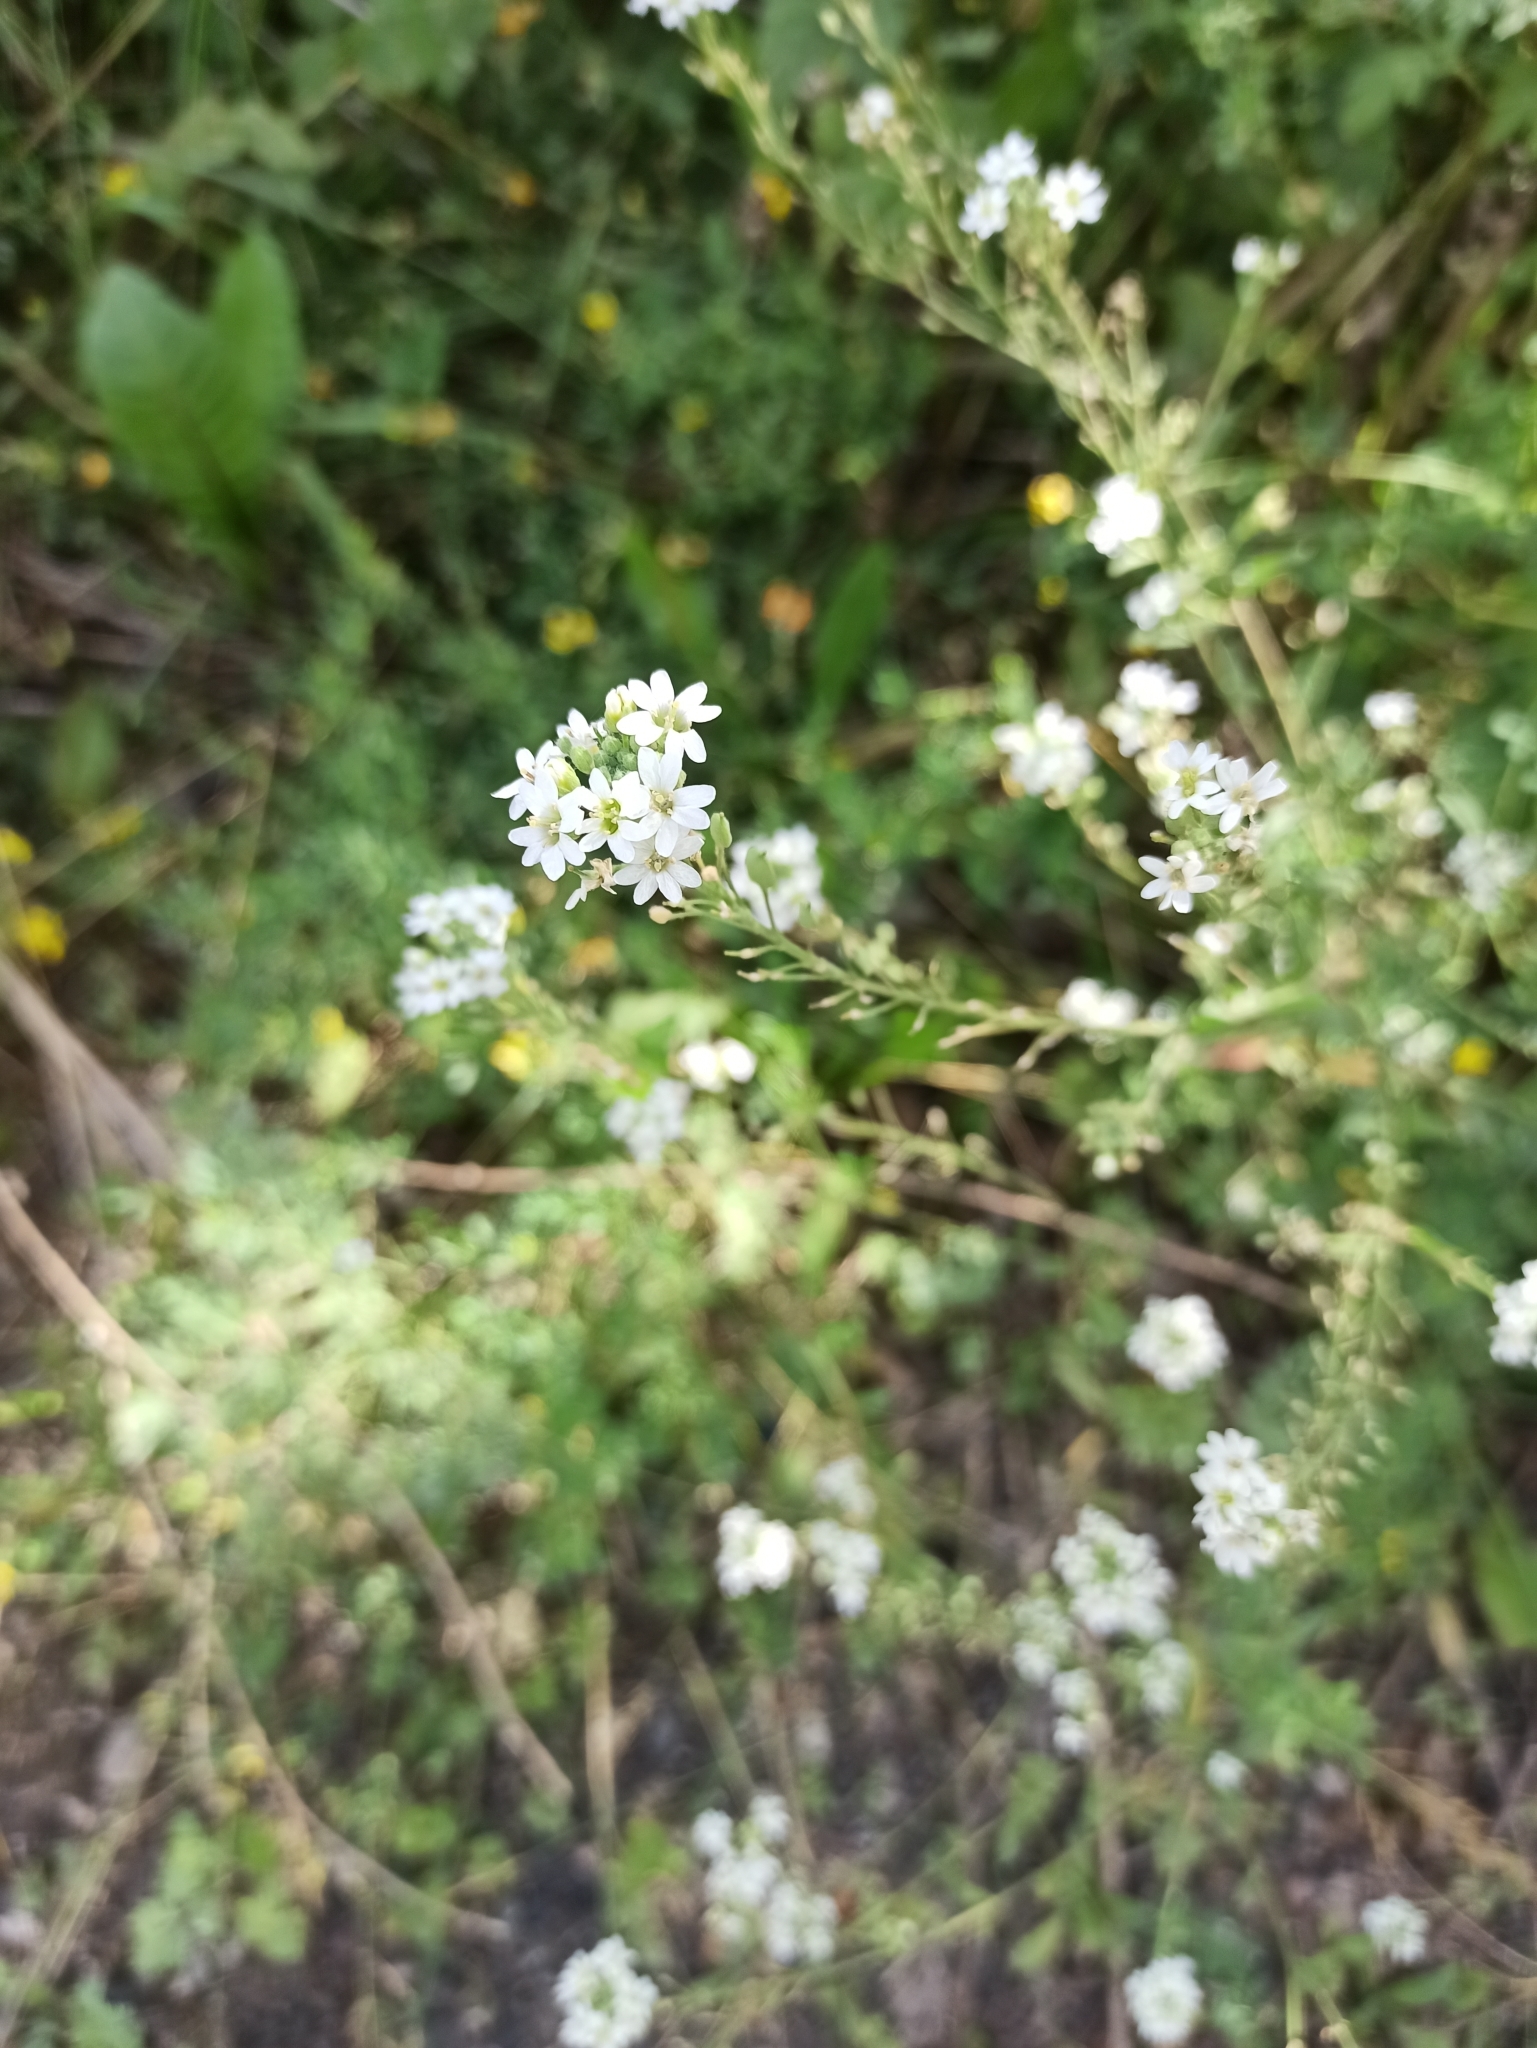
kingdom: Plantae
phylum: Tracheophyta
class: Magnoliopsida
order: Brassicales
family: Brassicaceae
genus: Berteroa
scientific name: Berteroa incana
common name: Hoary alison
